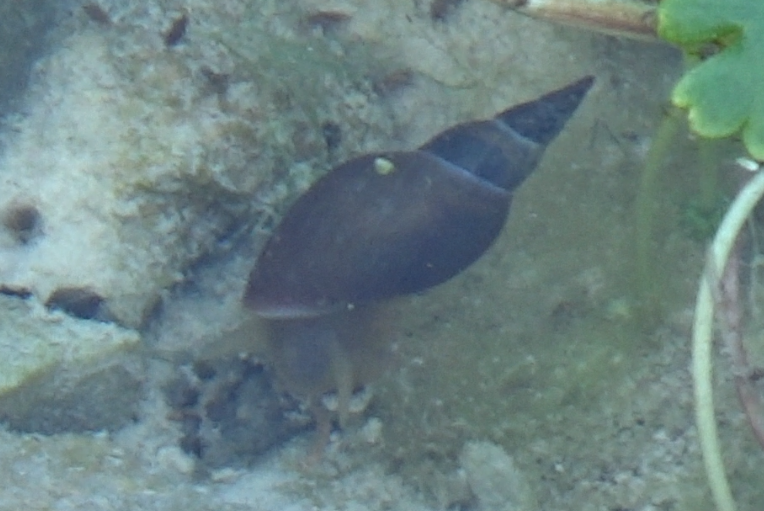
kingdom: Animalia
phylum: Mollusca
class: Gastropoda
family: Lymnaeidae
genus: Lymnaea
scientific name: Lymnaea stagnalis
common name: Great pond snail
